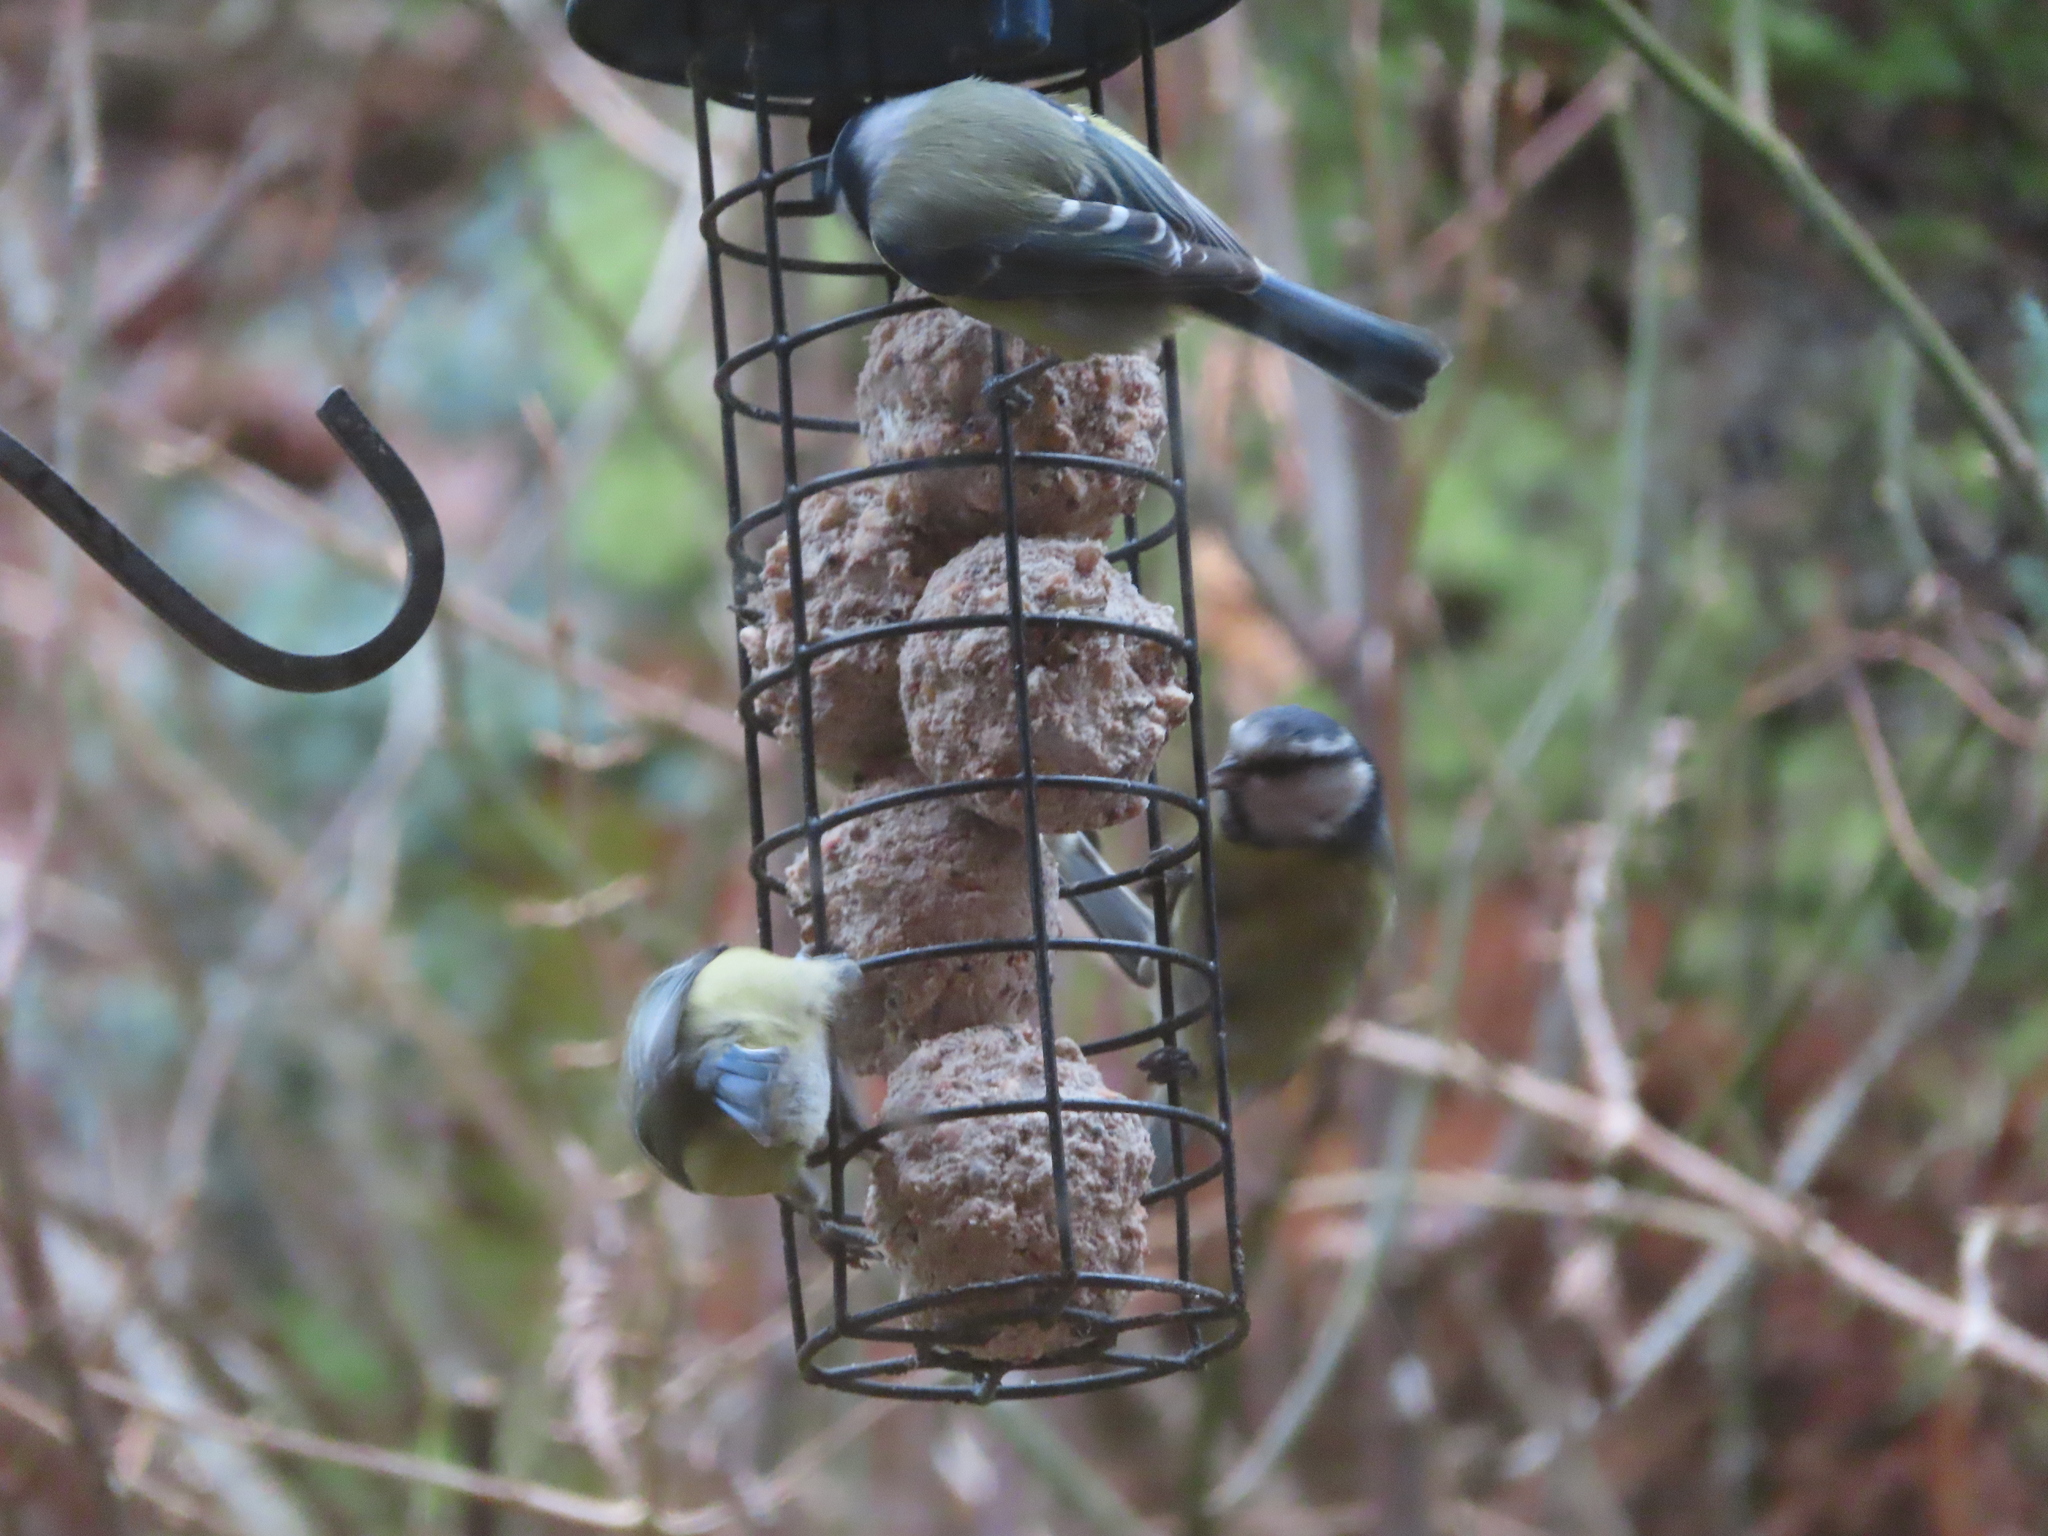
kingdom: Animalia
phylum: Chordata
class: Aves
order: Passeriformes
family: Paridae
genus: Cyanistes
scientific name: Cyanistes caeruleus
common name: Eurasian blue tit
